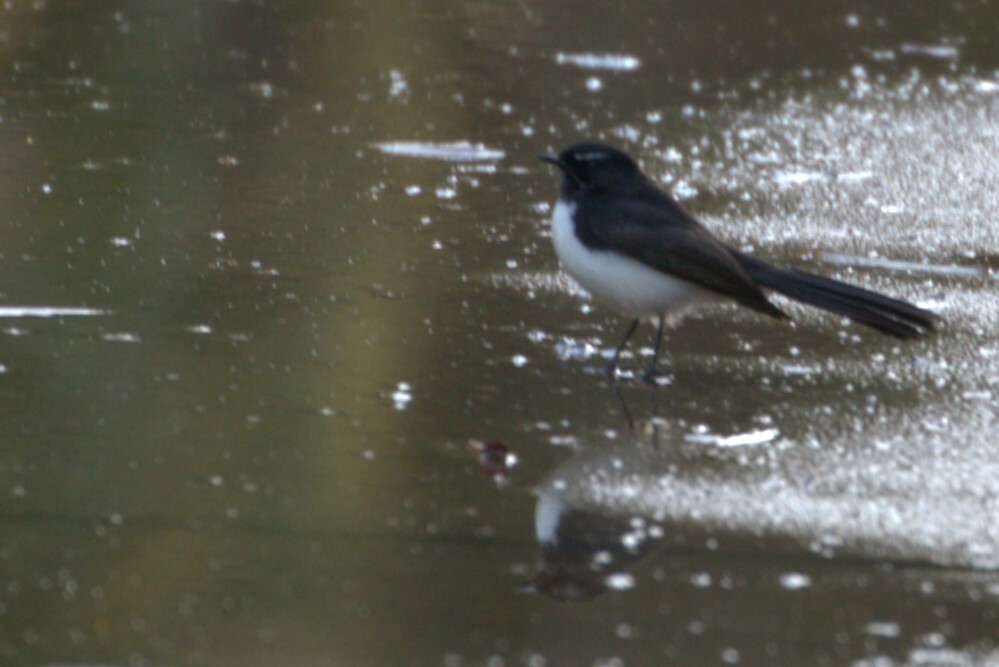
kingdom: Animalia
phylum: Chordata
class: Aves
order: Passeriformes
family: Rhipiduridae
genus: Rhipidura
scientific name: Rhipidura leucophrys
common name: Willie wagtail
